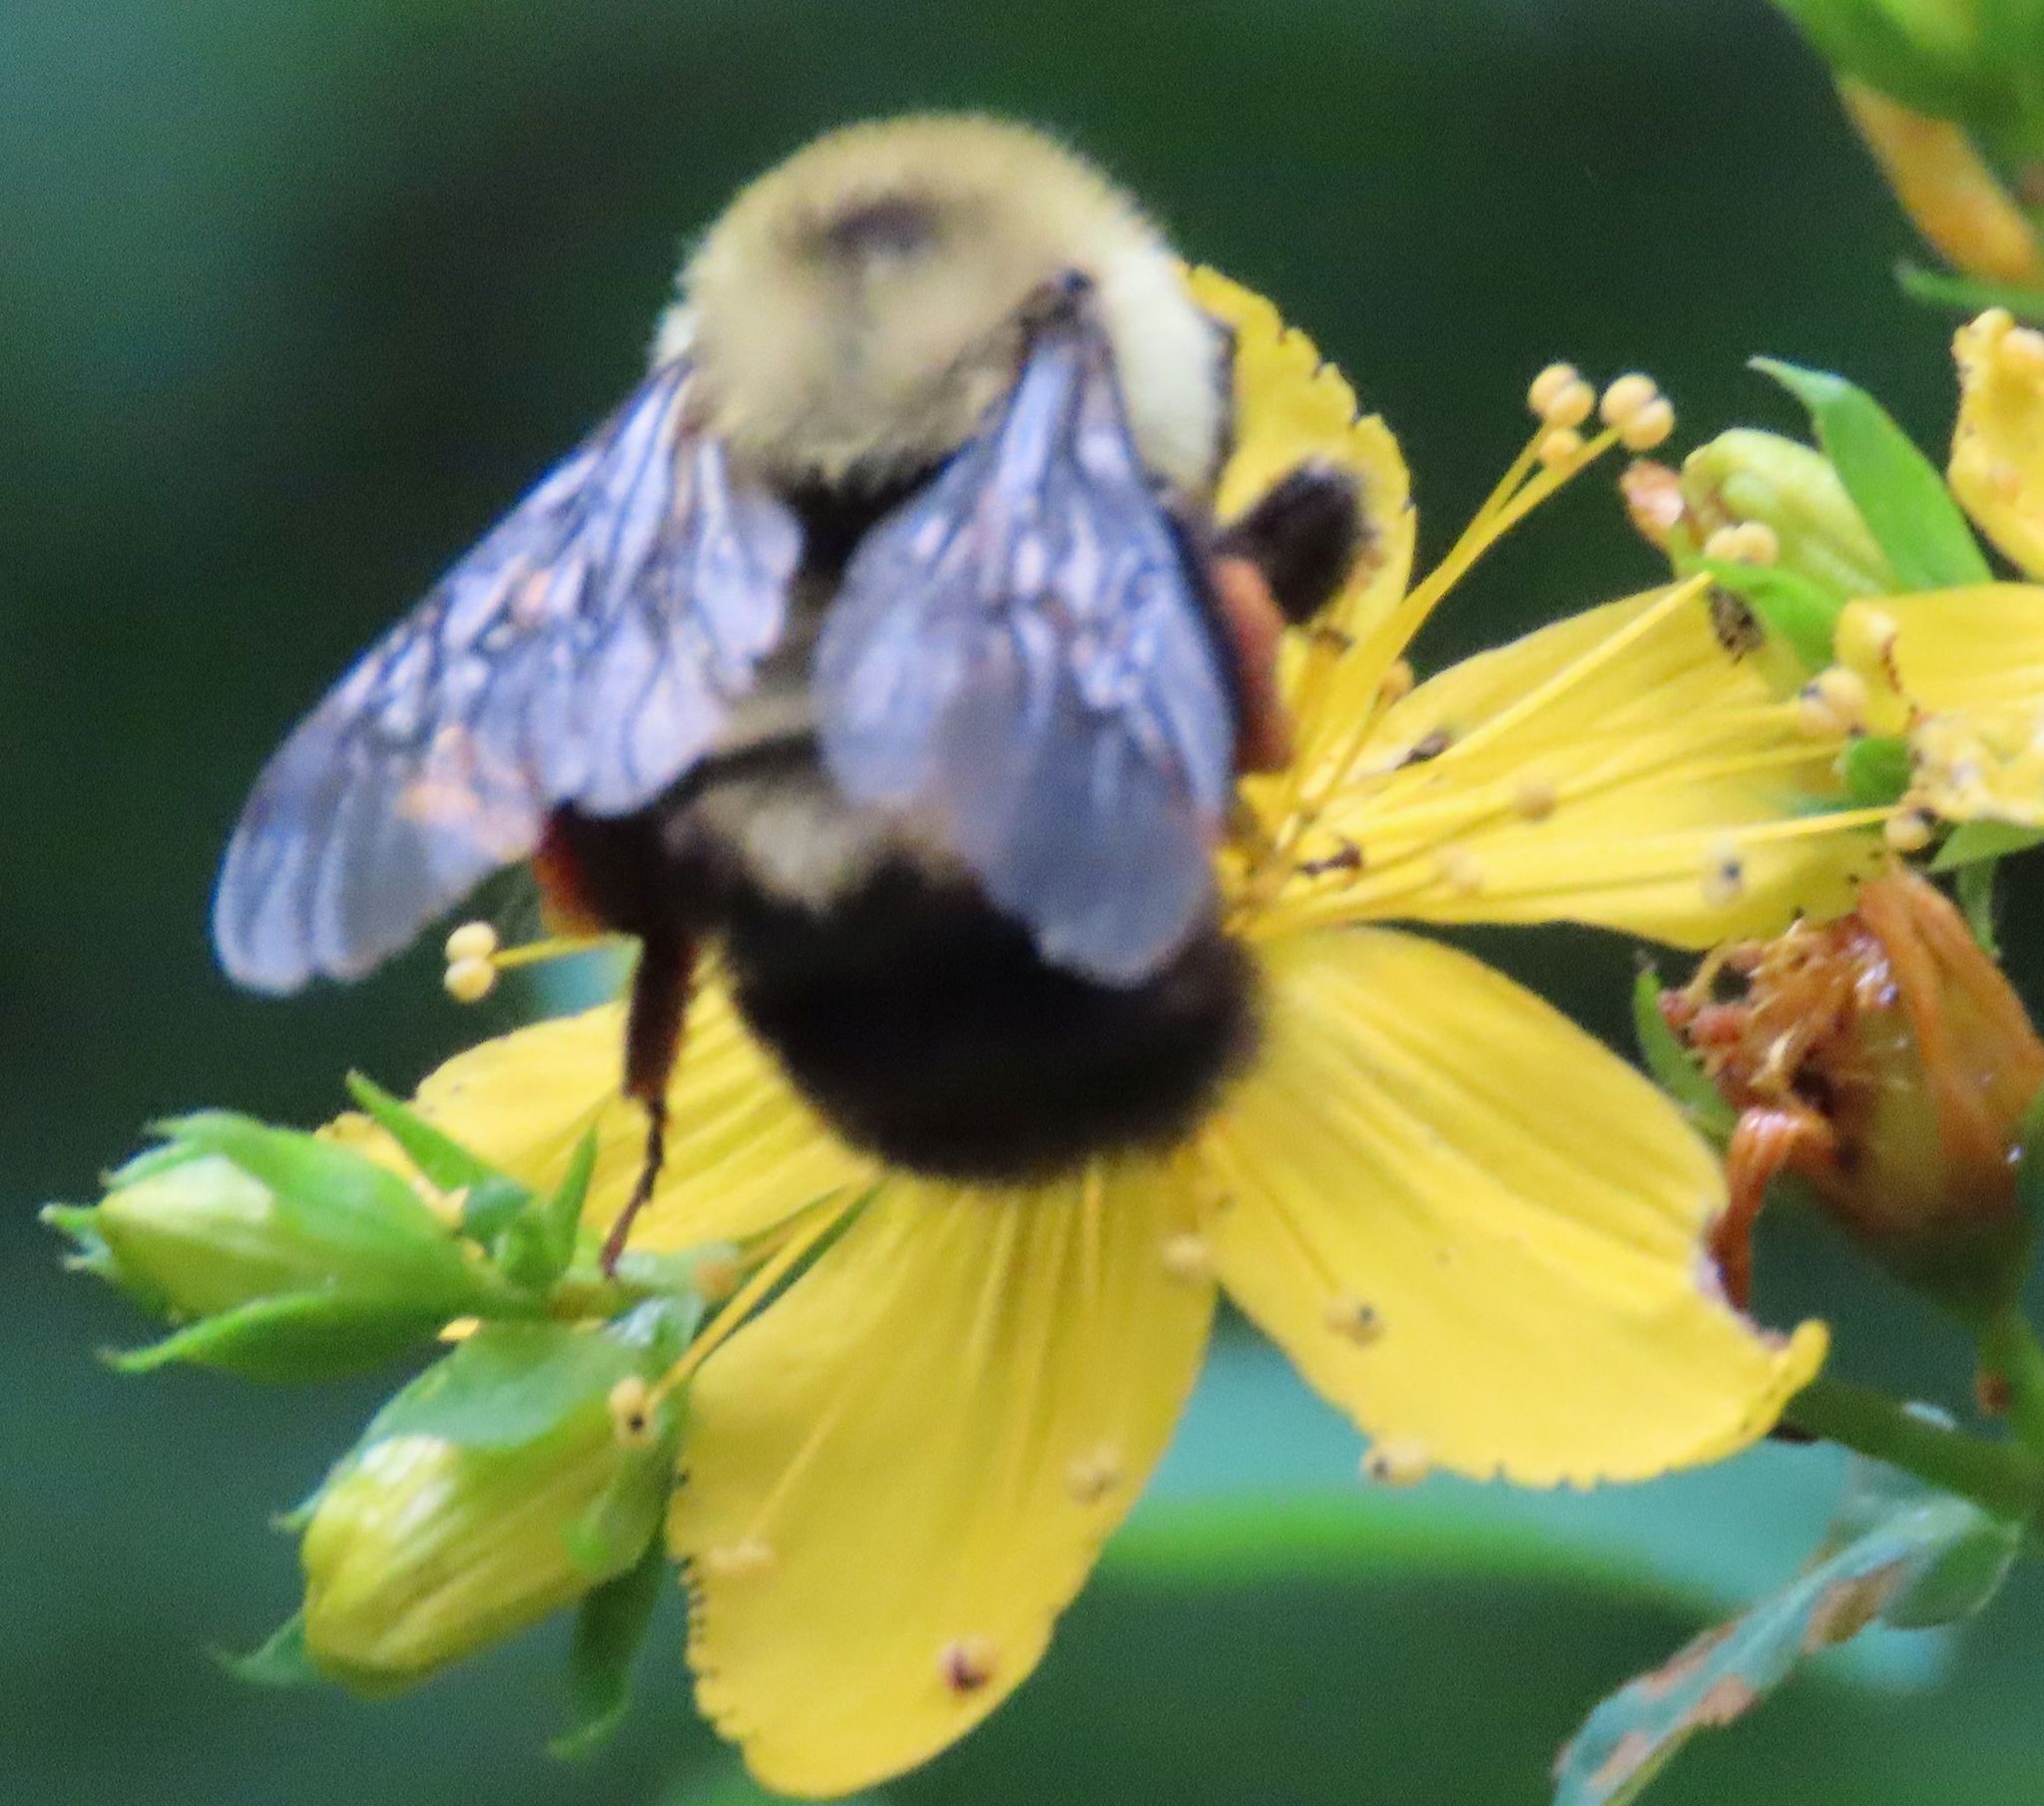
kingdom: Animalia
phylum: Arthropoda
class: Insecta
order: Hymenoptera
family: Apidae
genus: Bombus
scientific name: Bombus bimaculatus
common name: Two-spotted bumble bee
